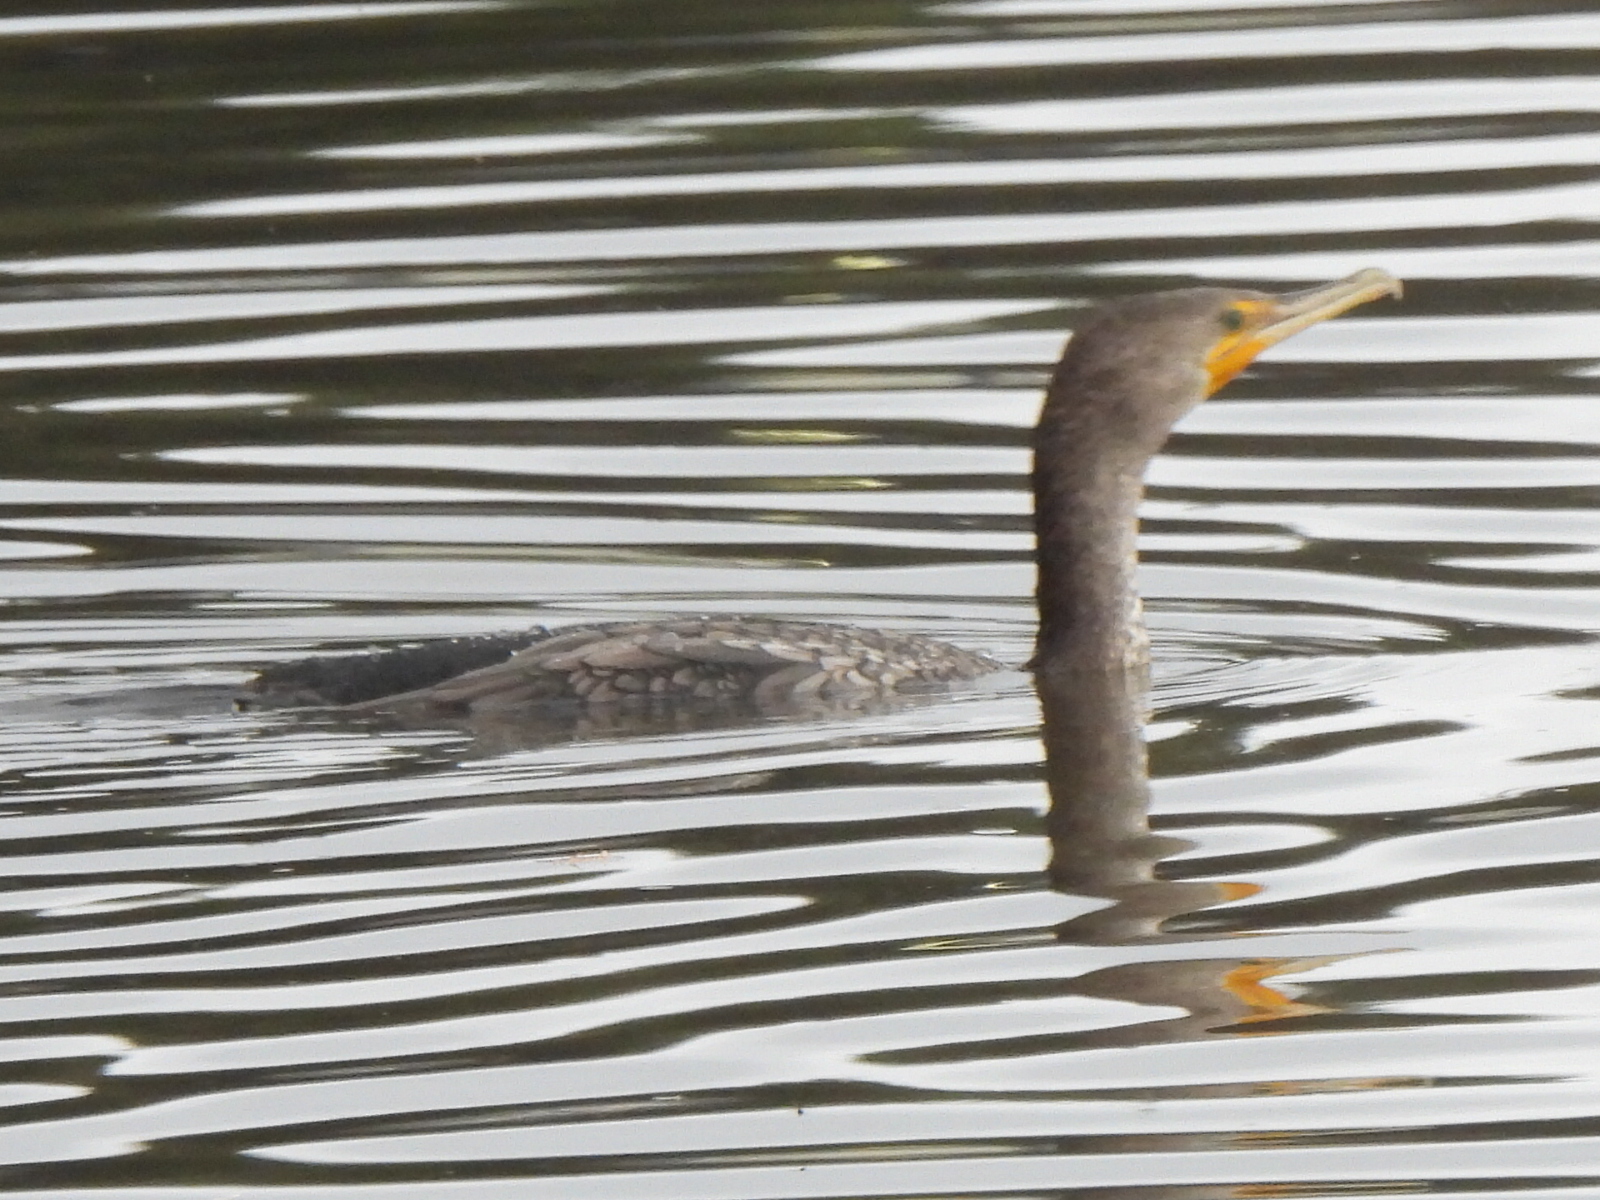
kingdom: Animalia
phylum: Chordata
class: Aves
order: Suliformes
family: Phalacrocoracidae
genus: Phalacrocorax
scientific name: Phalacrocorax auritus
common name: Double-crested cormorant
